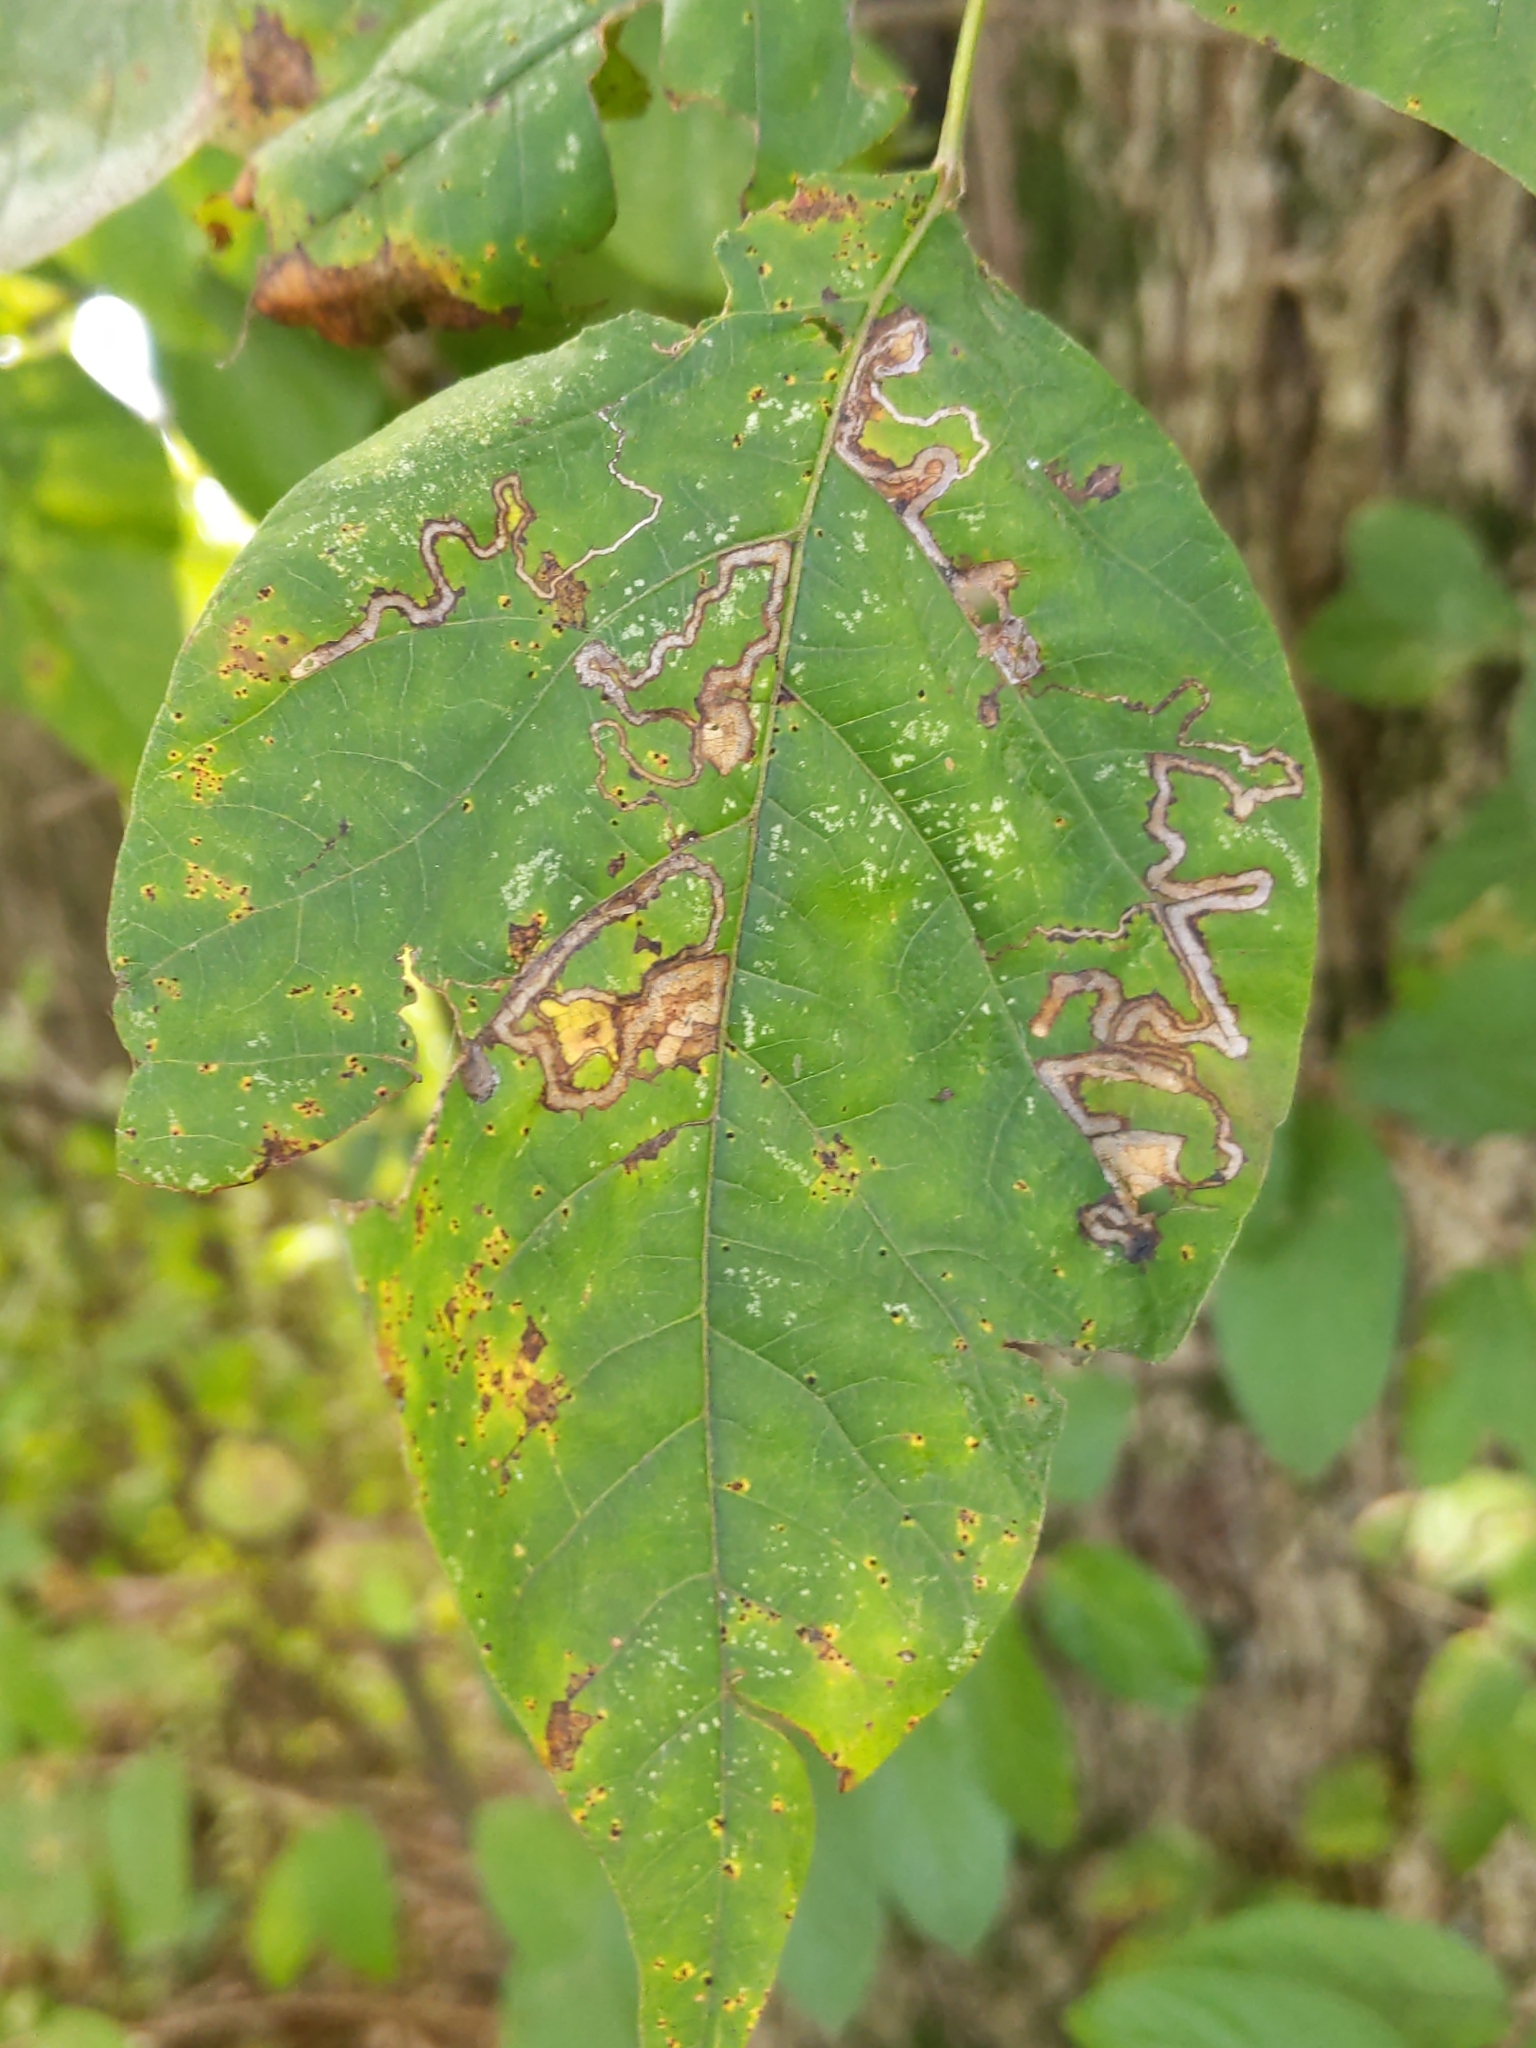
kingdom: Animalia
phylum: Arthropoda
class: Insecta
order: Lepidoptera
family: Nepticulidae
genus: Stigmella
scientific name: Stigmella rhoifoliella
